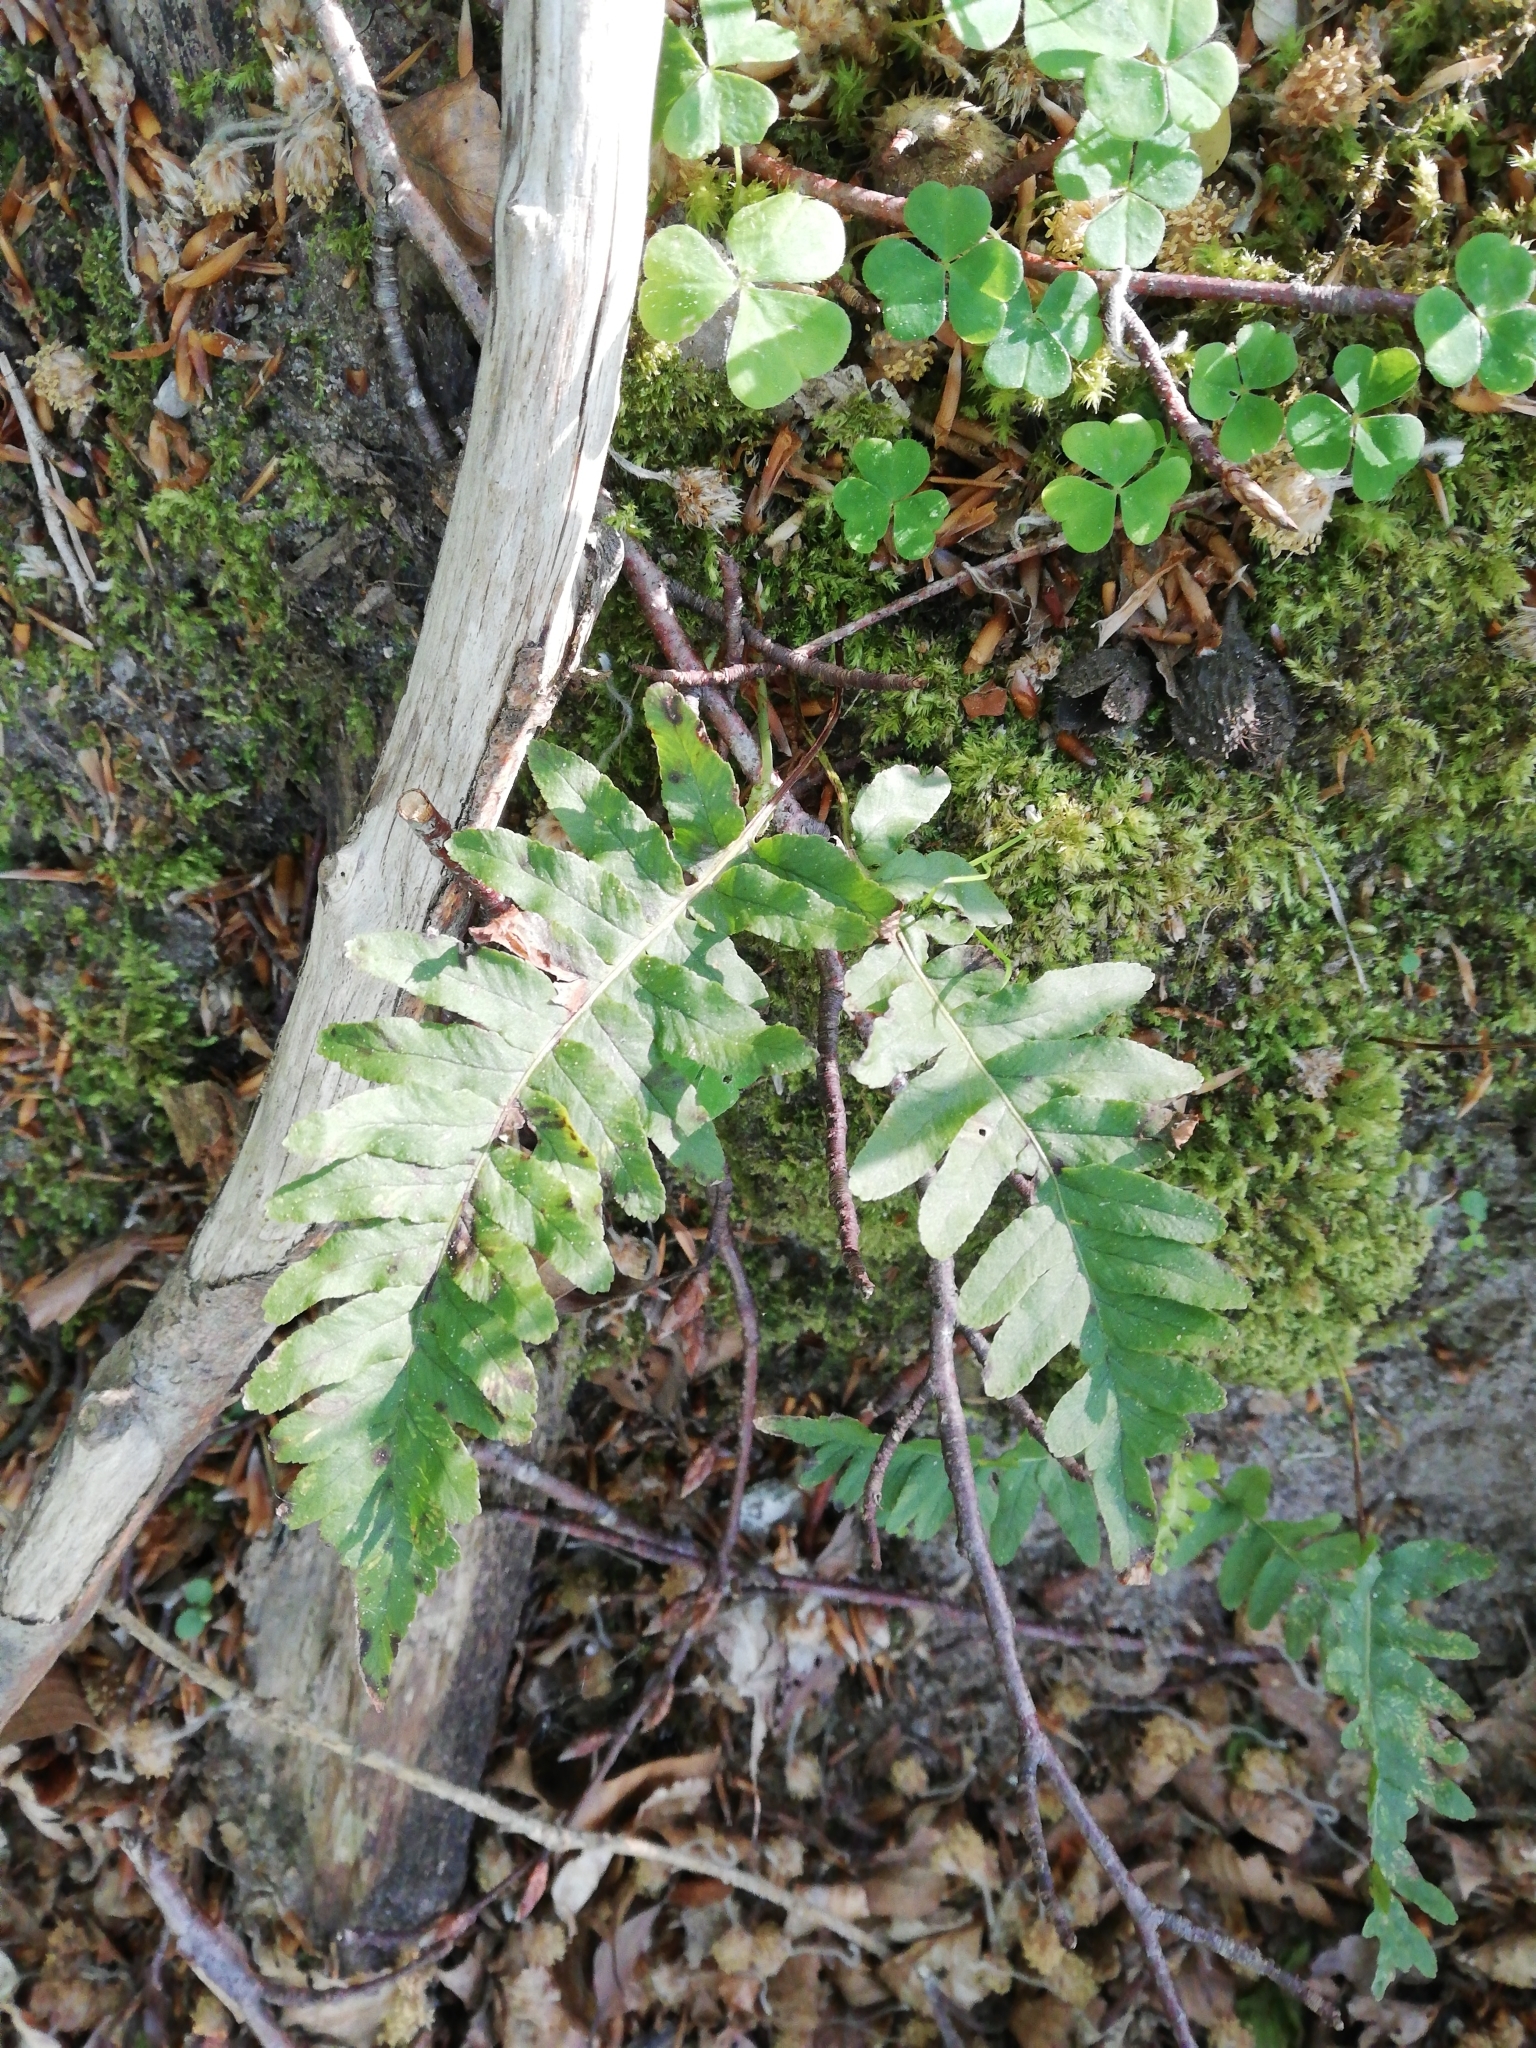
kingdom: Plantae
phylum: Tracheophyta
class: Polypodiopsida
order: Polypodiales
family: Polypodiaceae
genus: Polypodium
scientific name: Polypodium vulgare
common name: Common polypody
